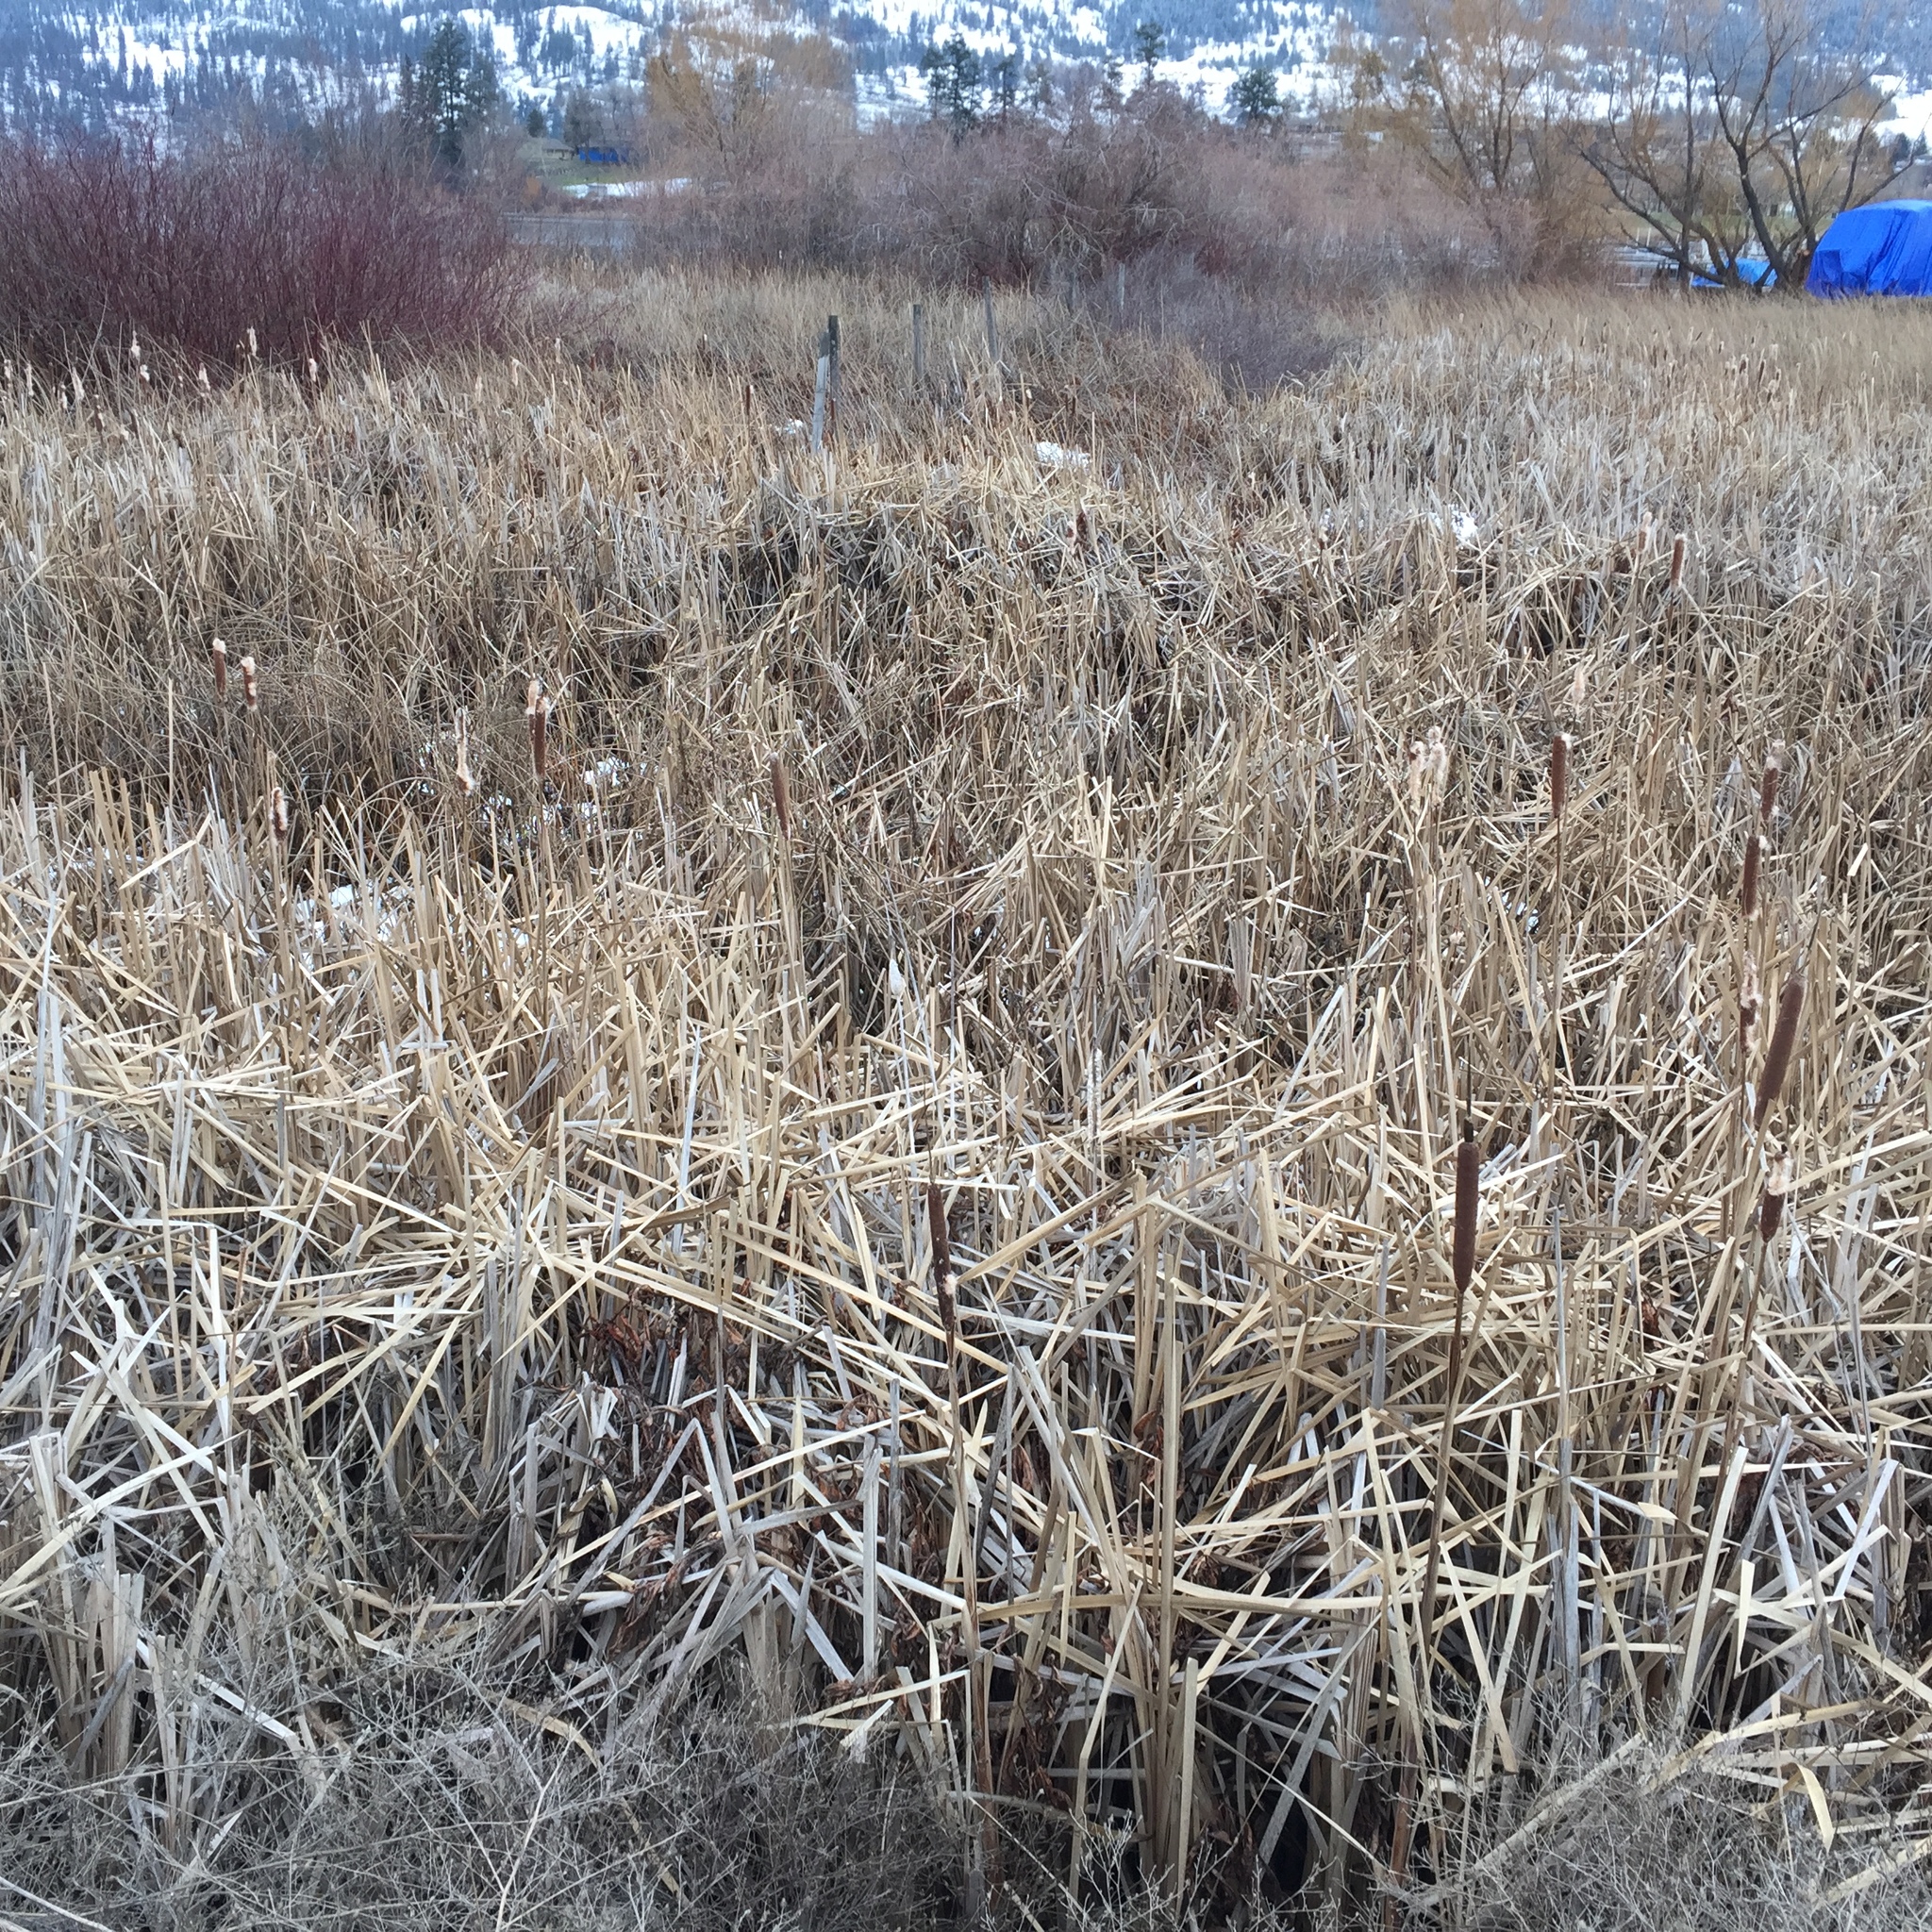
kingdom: Plantae
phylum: Tracheophyta
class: Liliopsida
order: Poales
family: Typhaceae
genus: Typha
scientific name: Typha latifolia
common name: Broadleaf cattail
